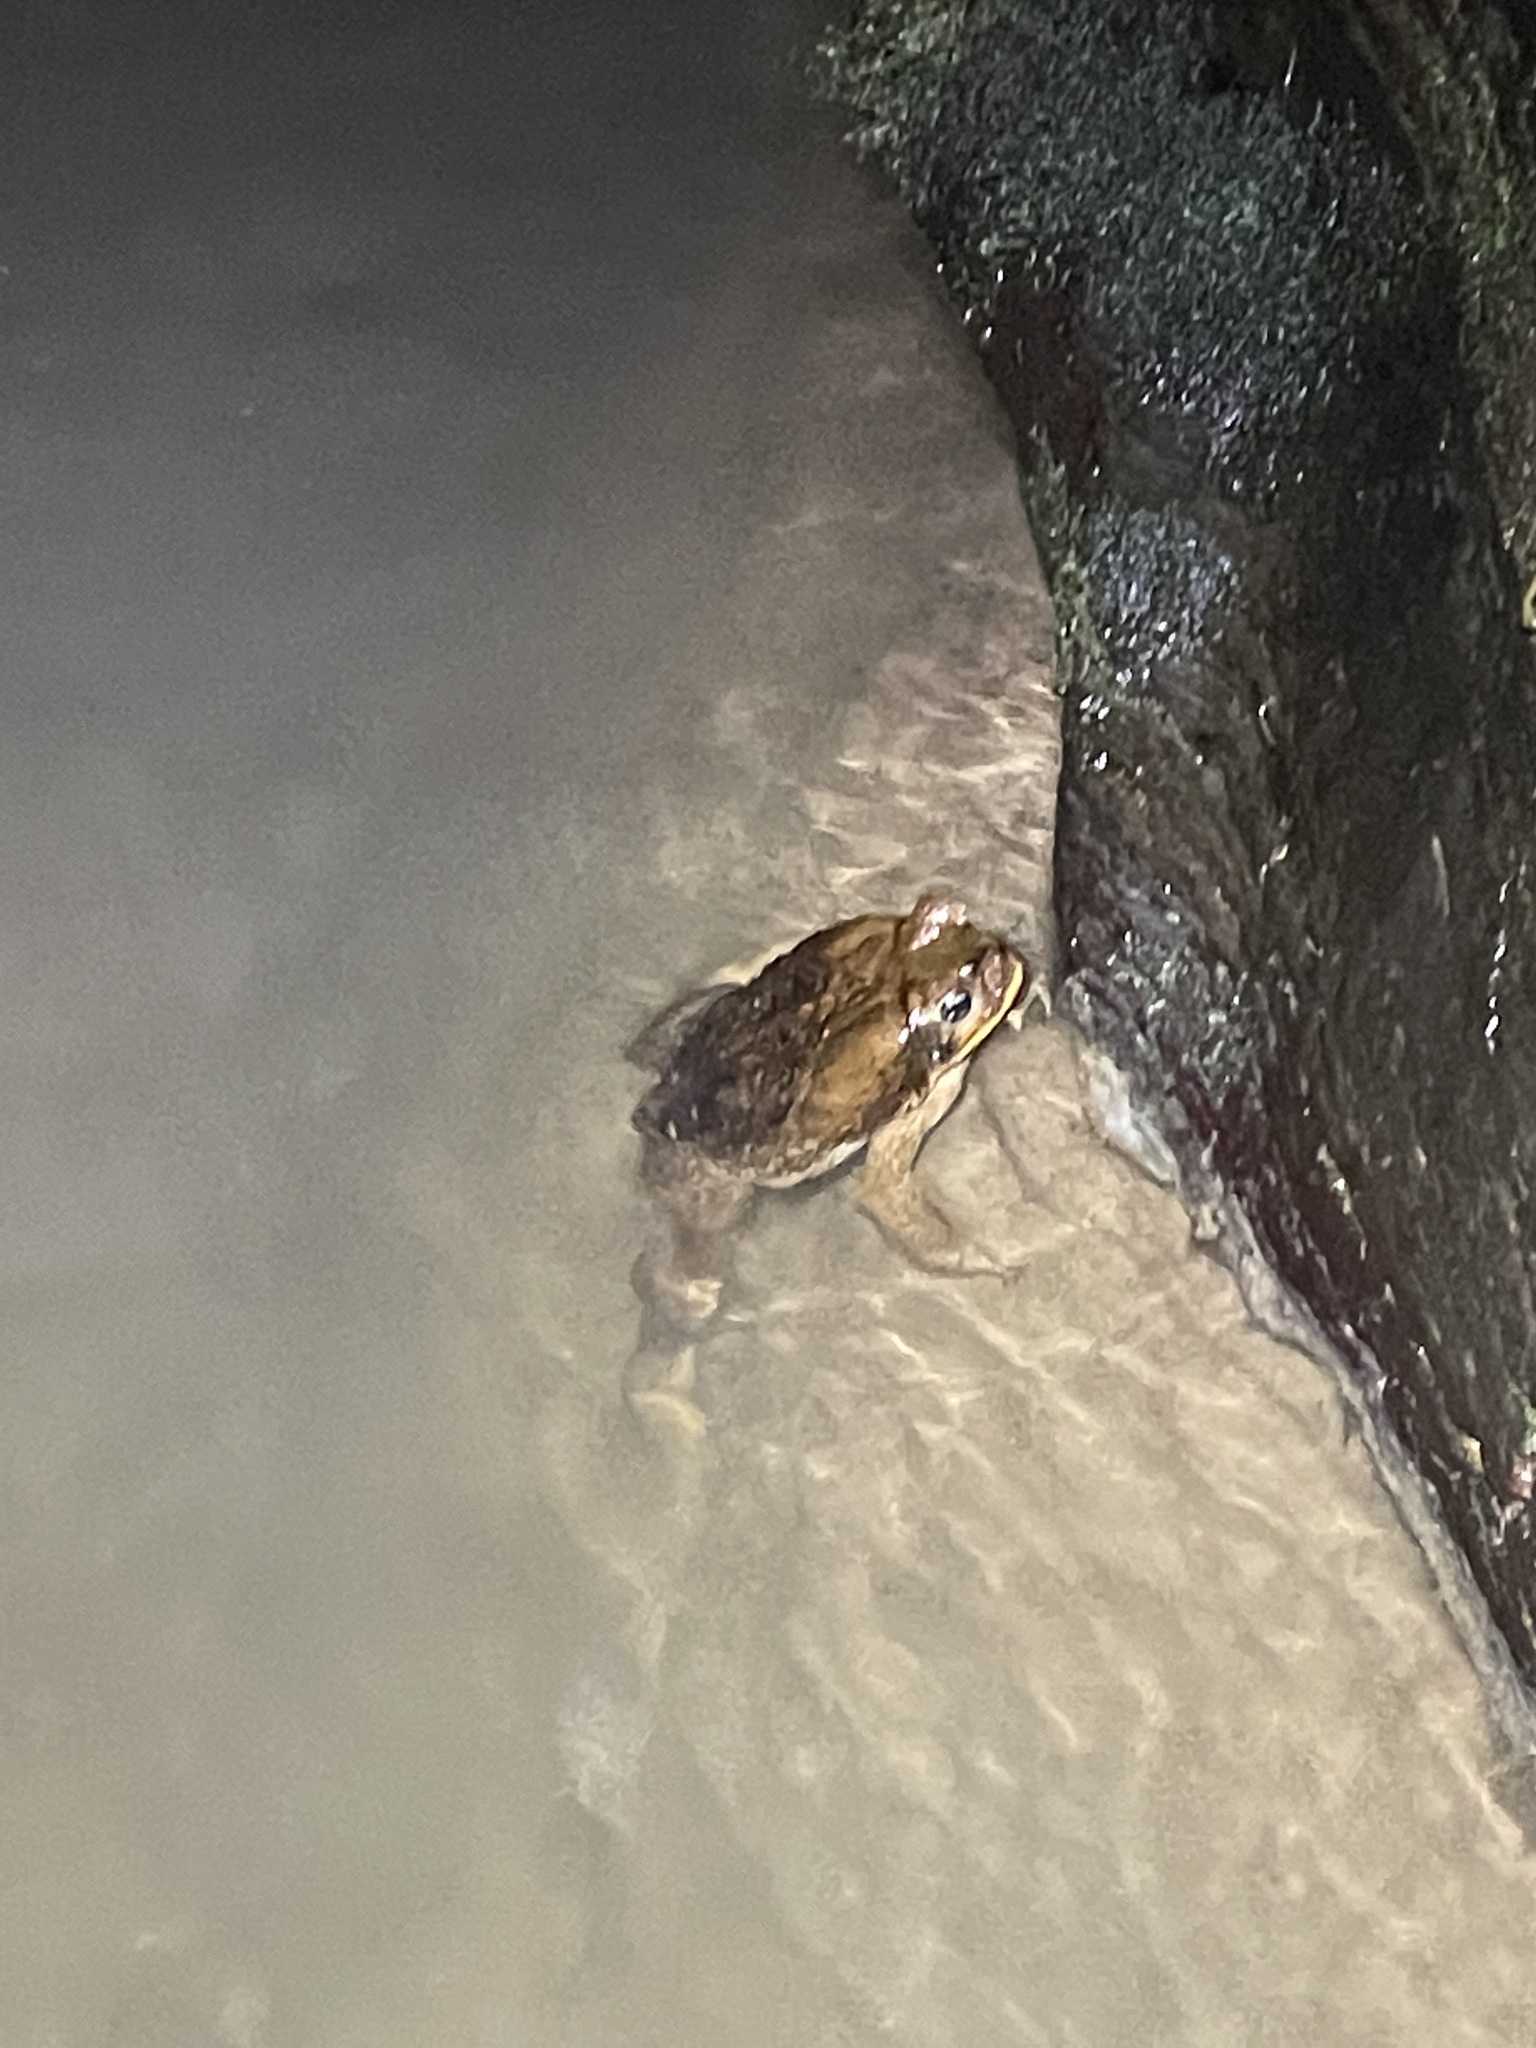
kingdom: Animalia
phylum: Chordata
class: Amphibia
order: Anura
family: Bufonidae
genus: Rhinella
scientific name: Rhinella marina
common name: Cane toad
